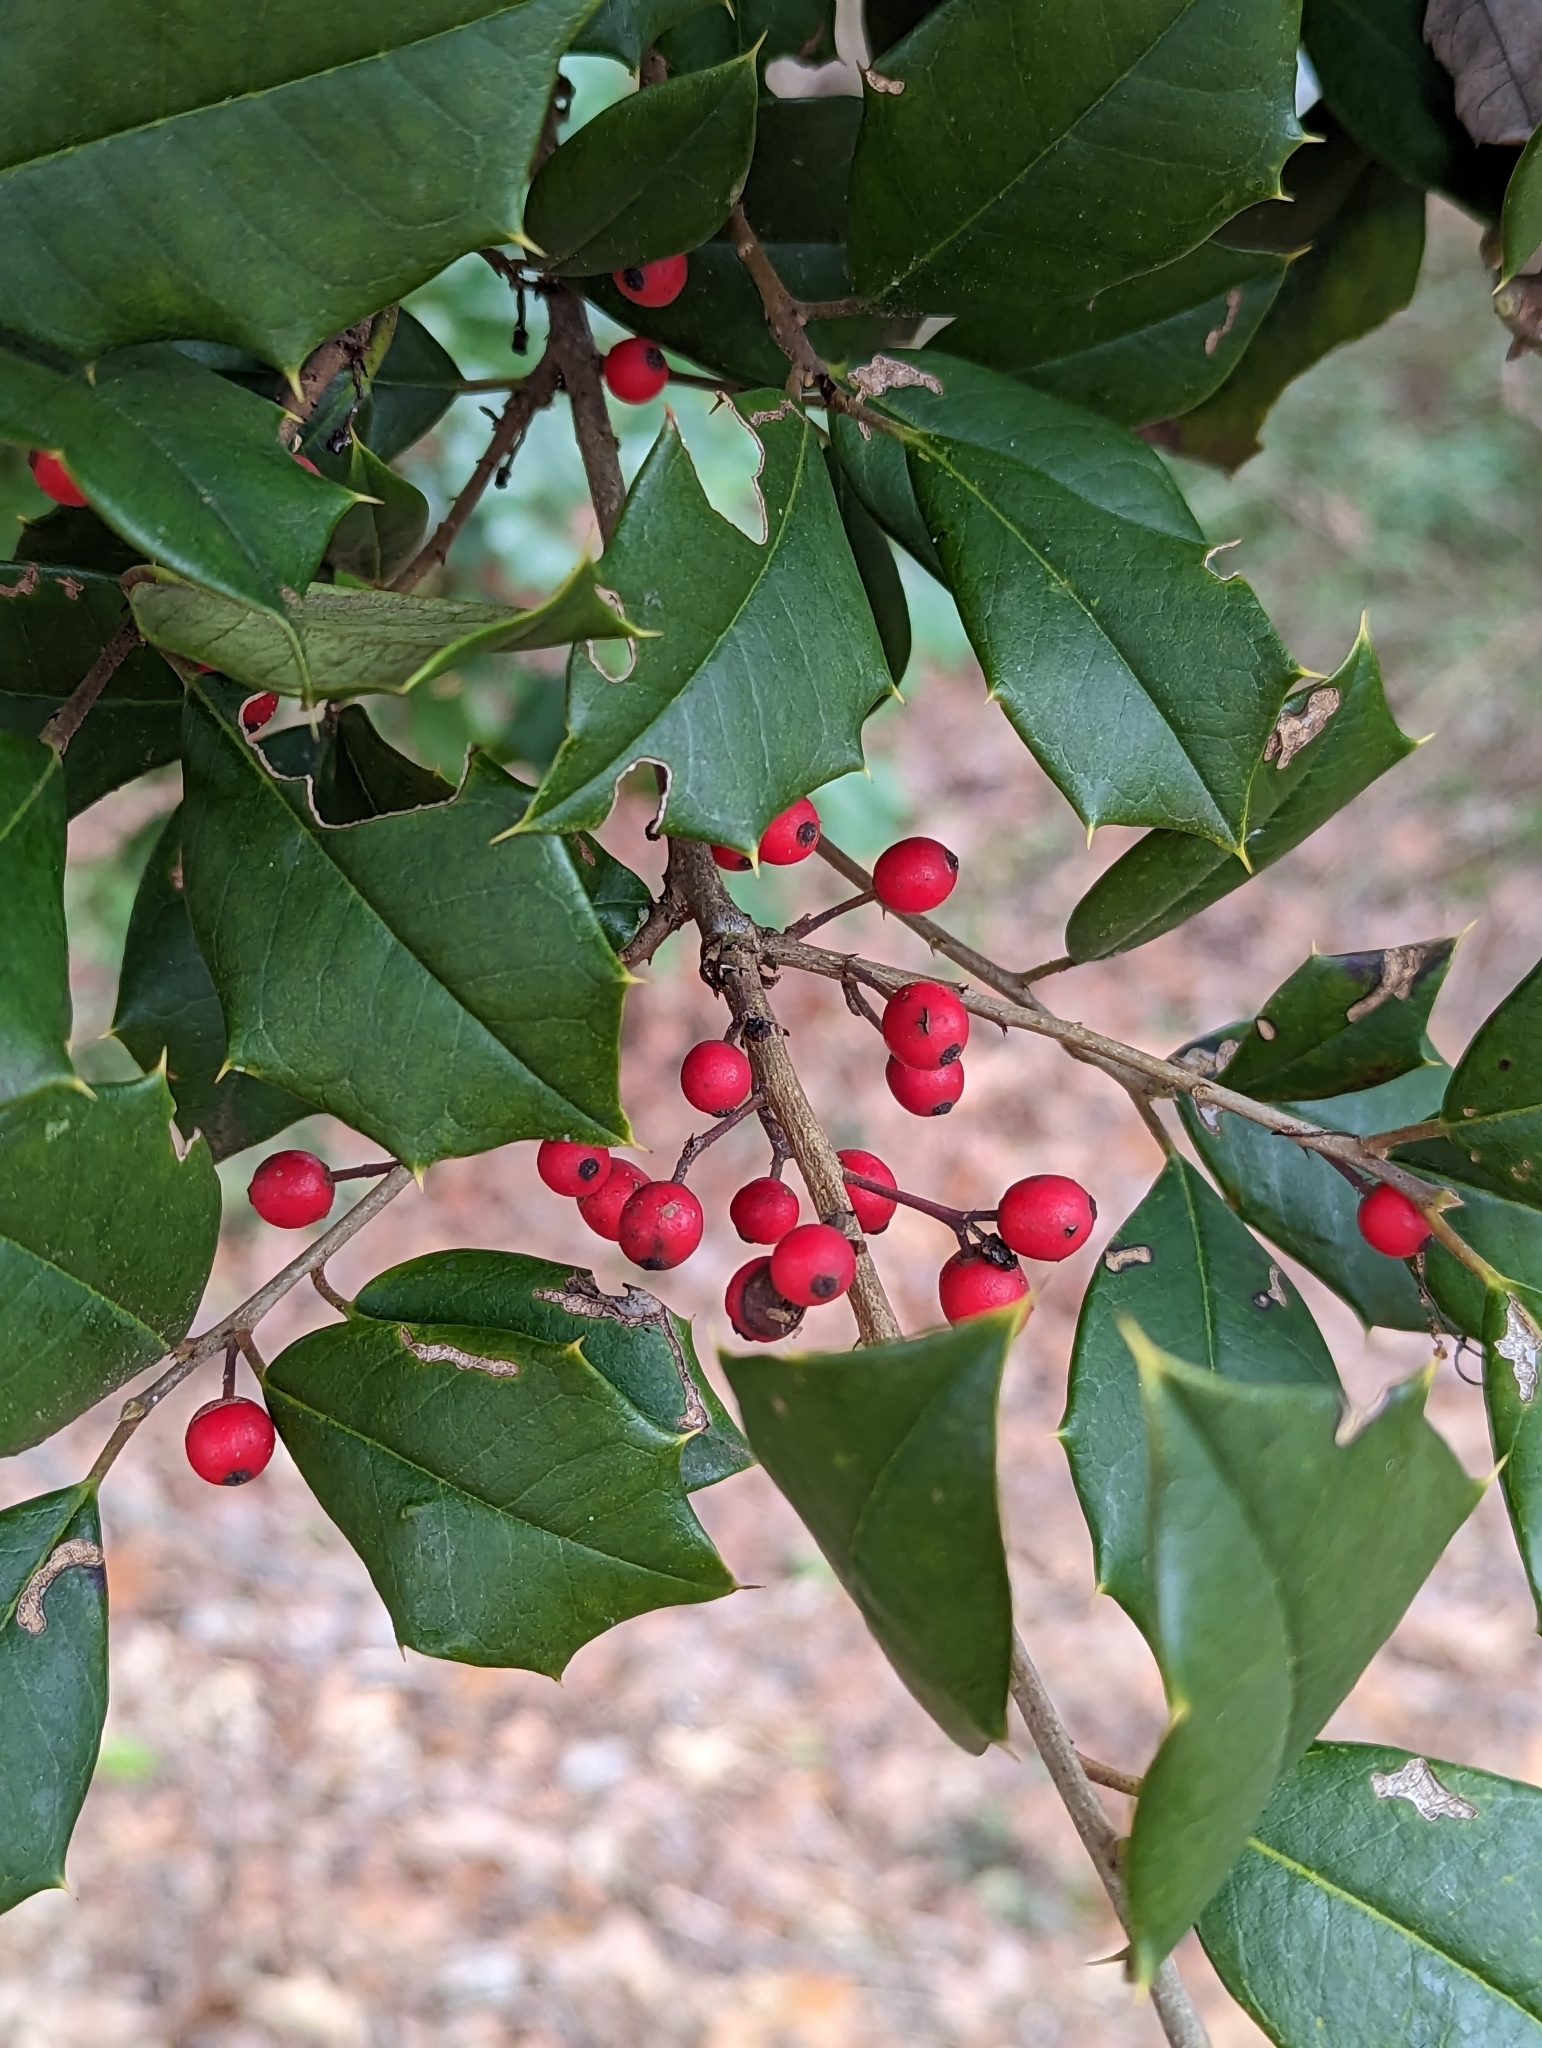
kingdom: Plantae
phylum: Tracheophyta
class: Magnoliopsida
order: Aquifoliales
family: Aquifoliaceae
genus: Ilex
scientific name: Ilex opaca
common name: American holly
